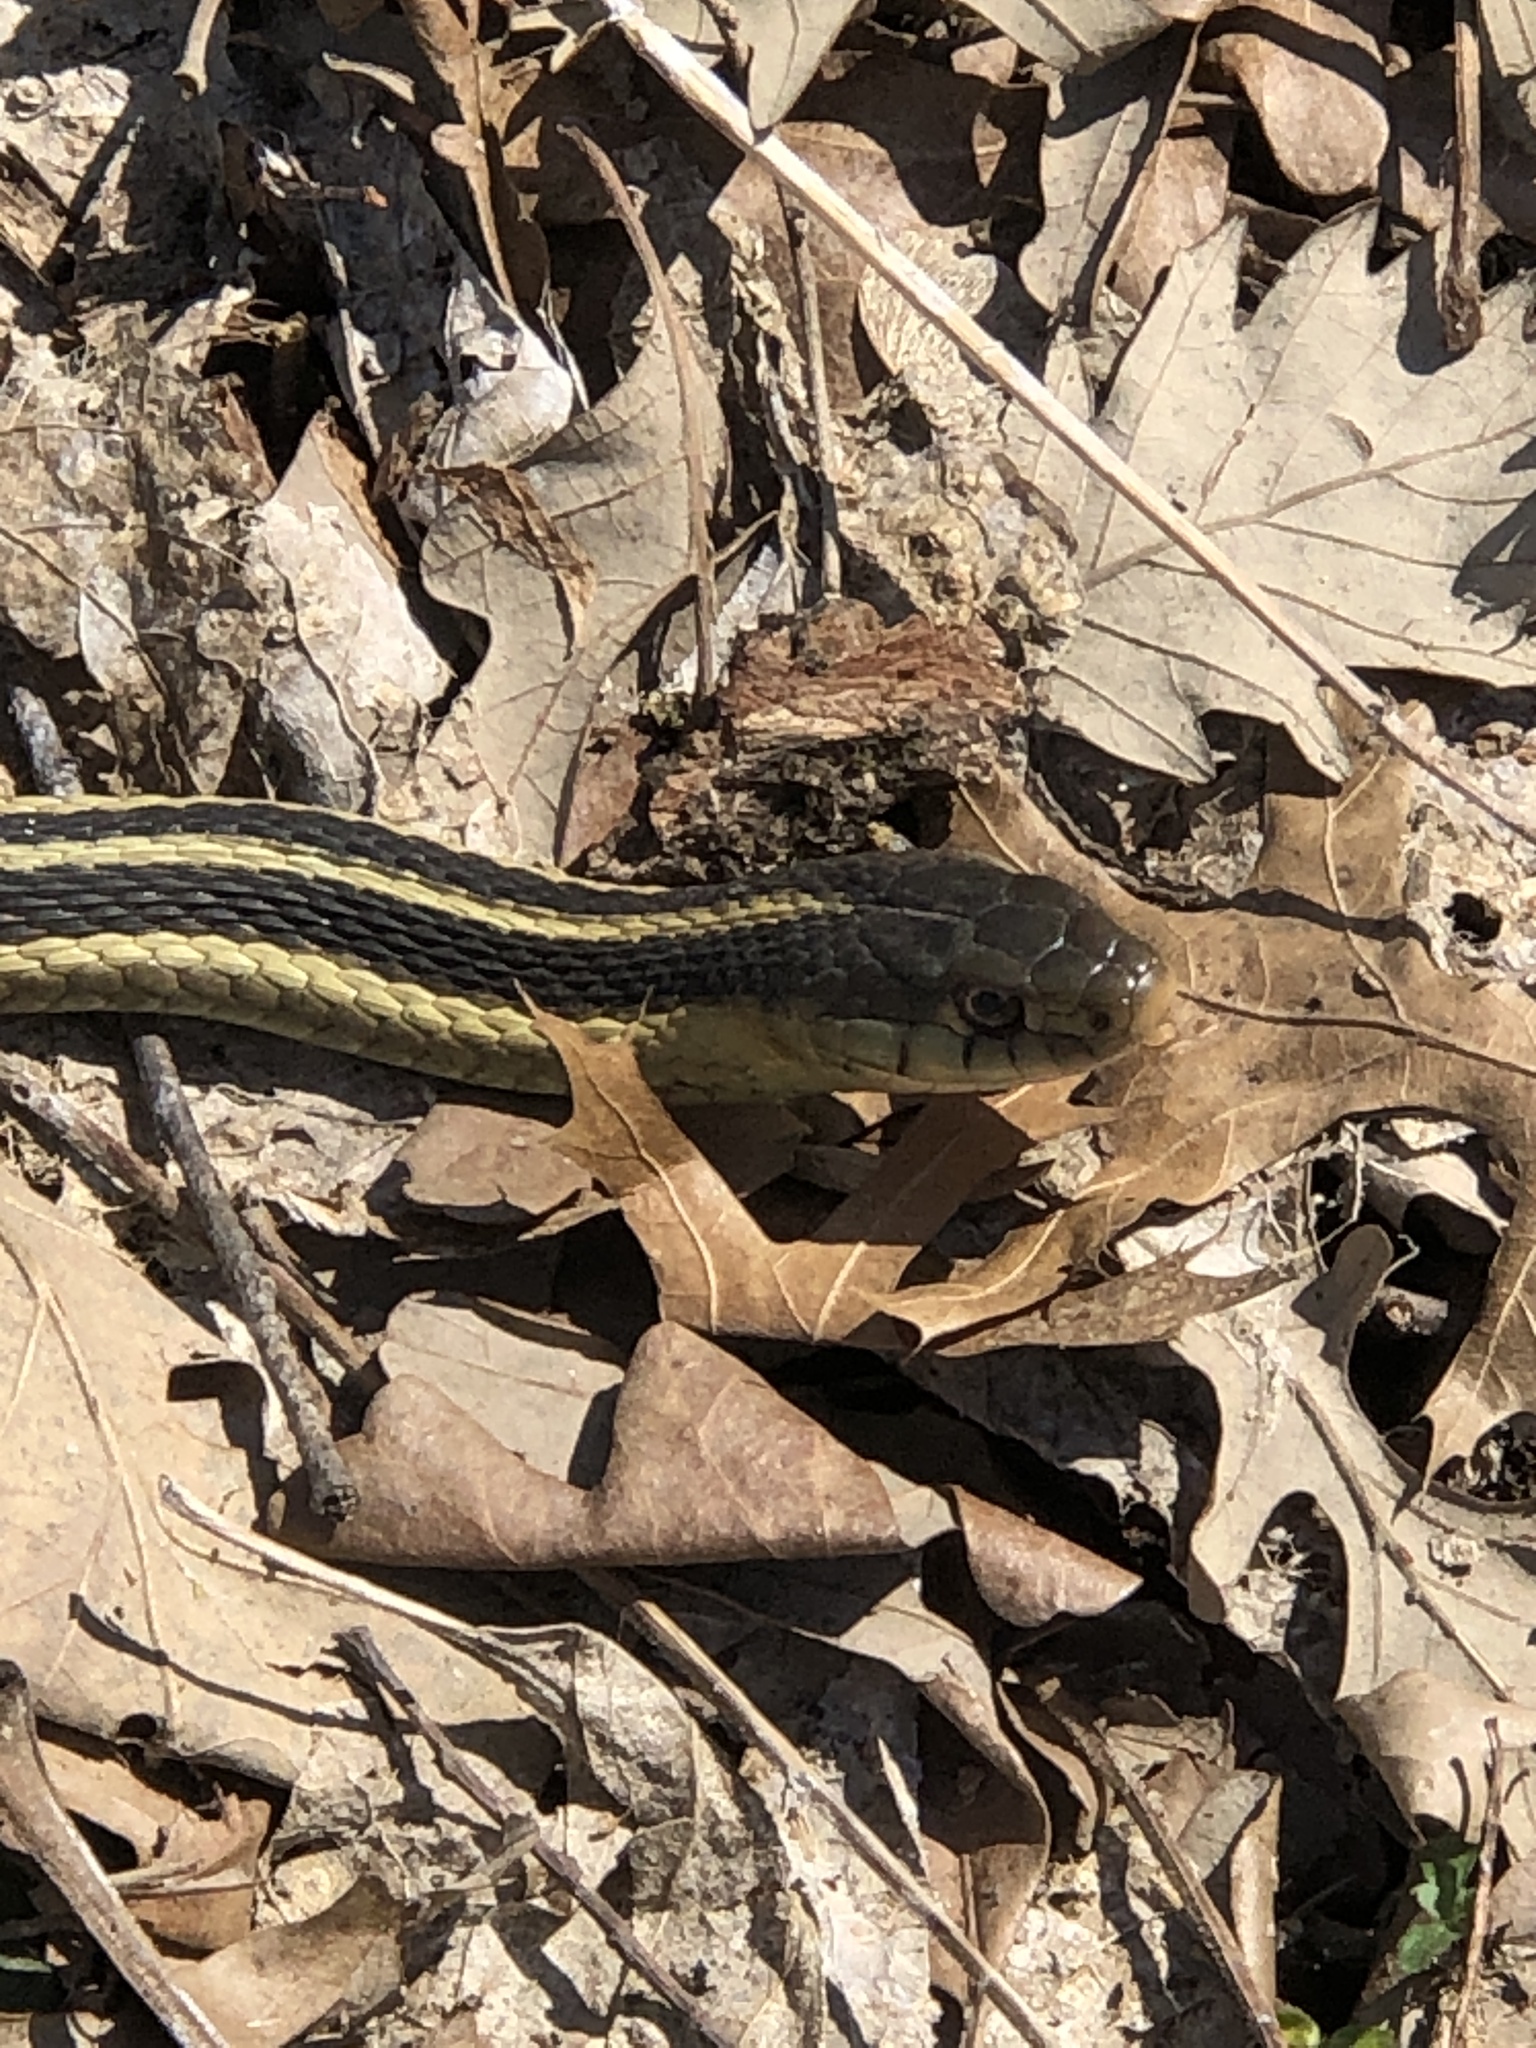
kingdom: Animalia
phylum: Chordata
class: Squamata
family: Colubridae
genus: Thamnophis
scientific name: Thamnophis sirtalis
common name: Common garter snake
